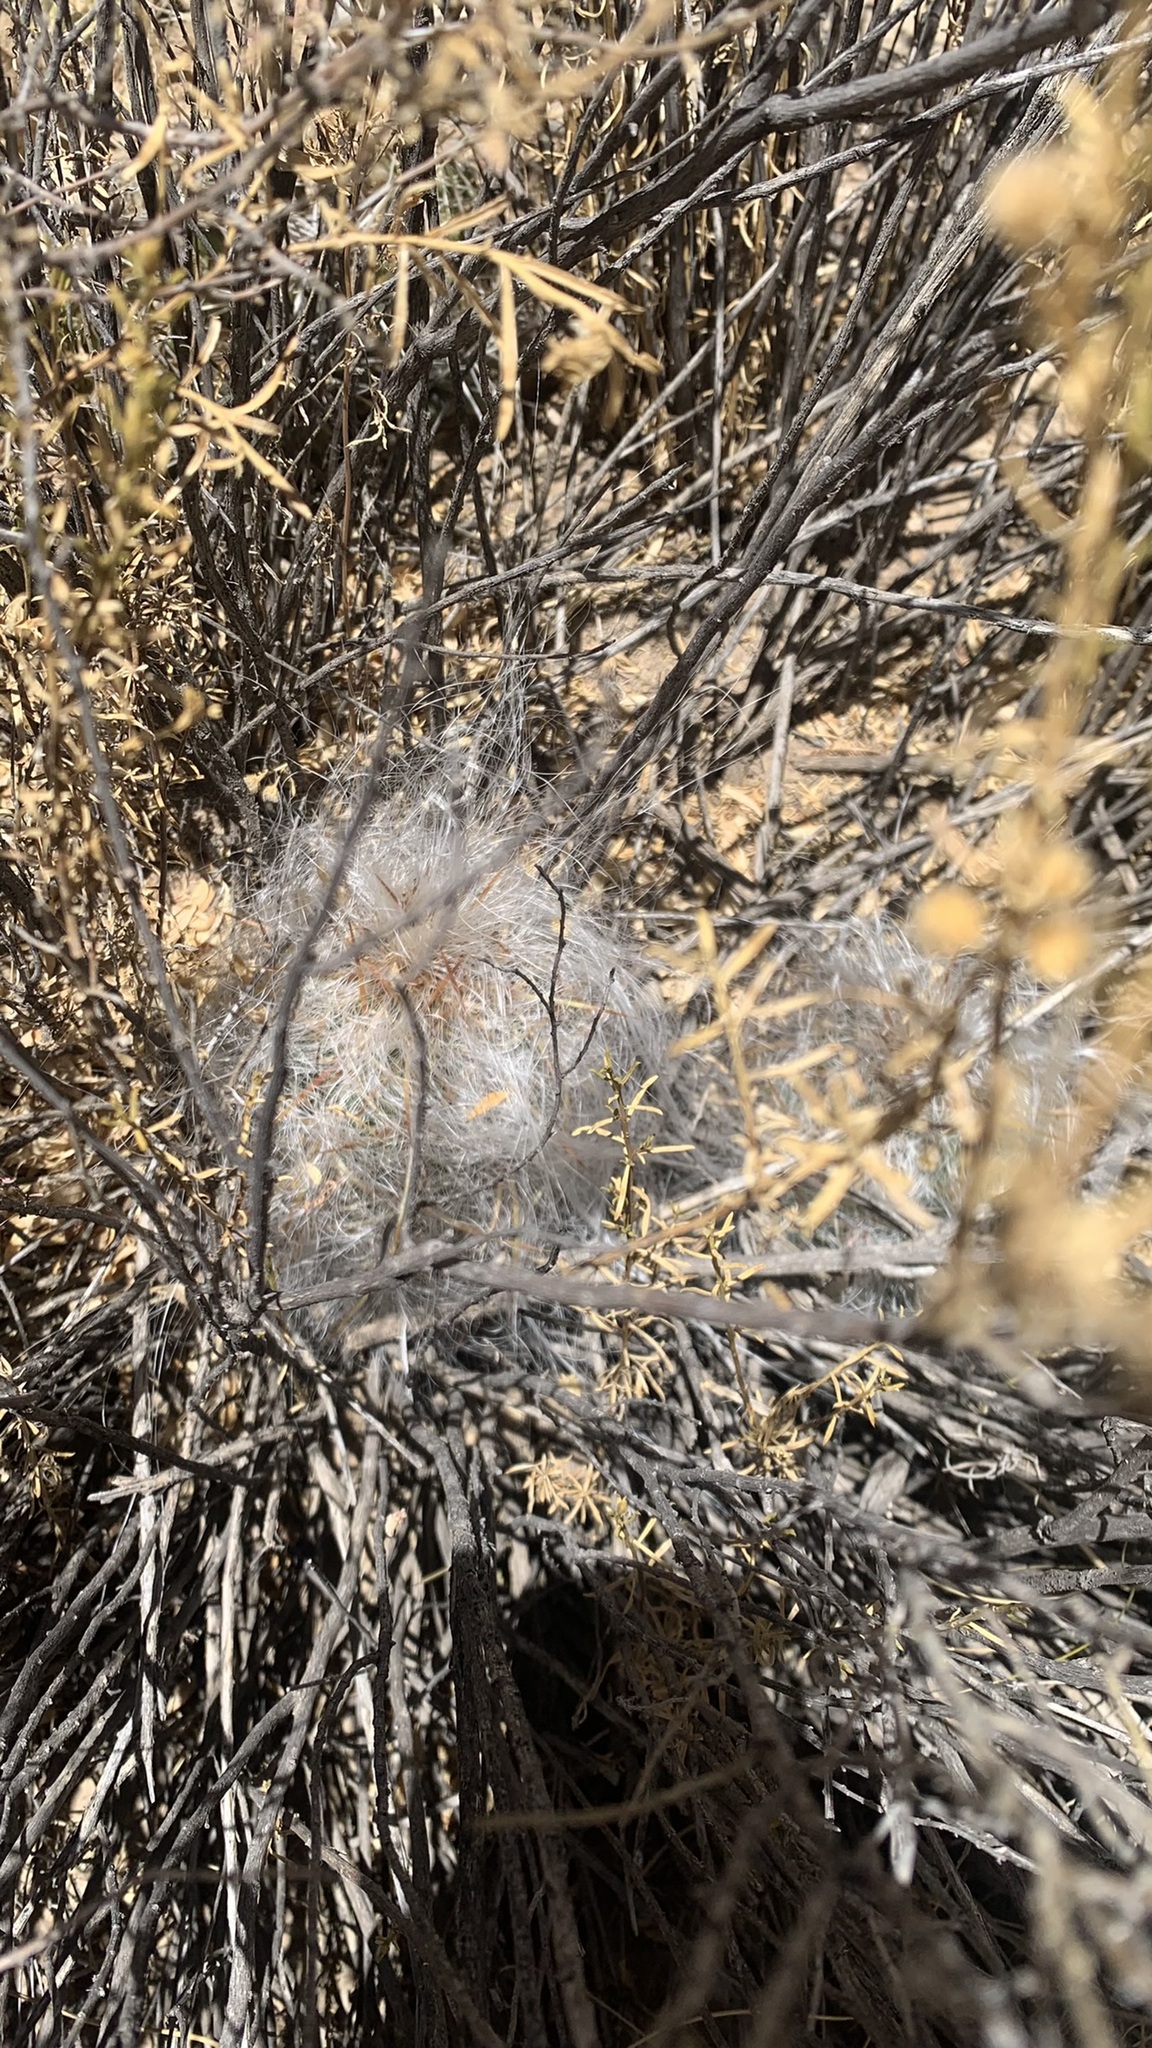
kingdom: Plantae
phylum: Tracheophyta
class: Magnoliopsida
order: Caryophyllales
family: Cactaceae
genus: Oreocereus
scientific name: Oreocereus trollii
